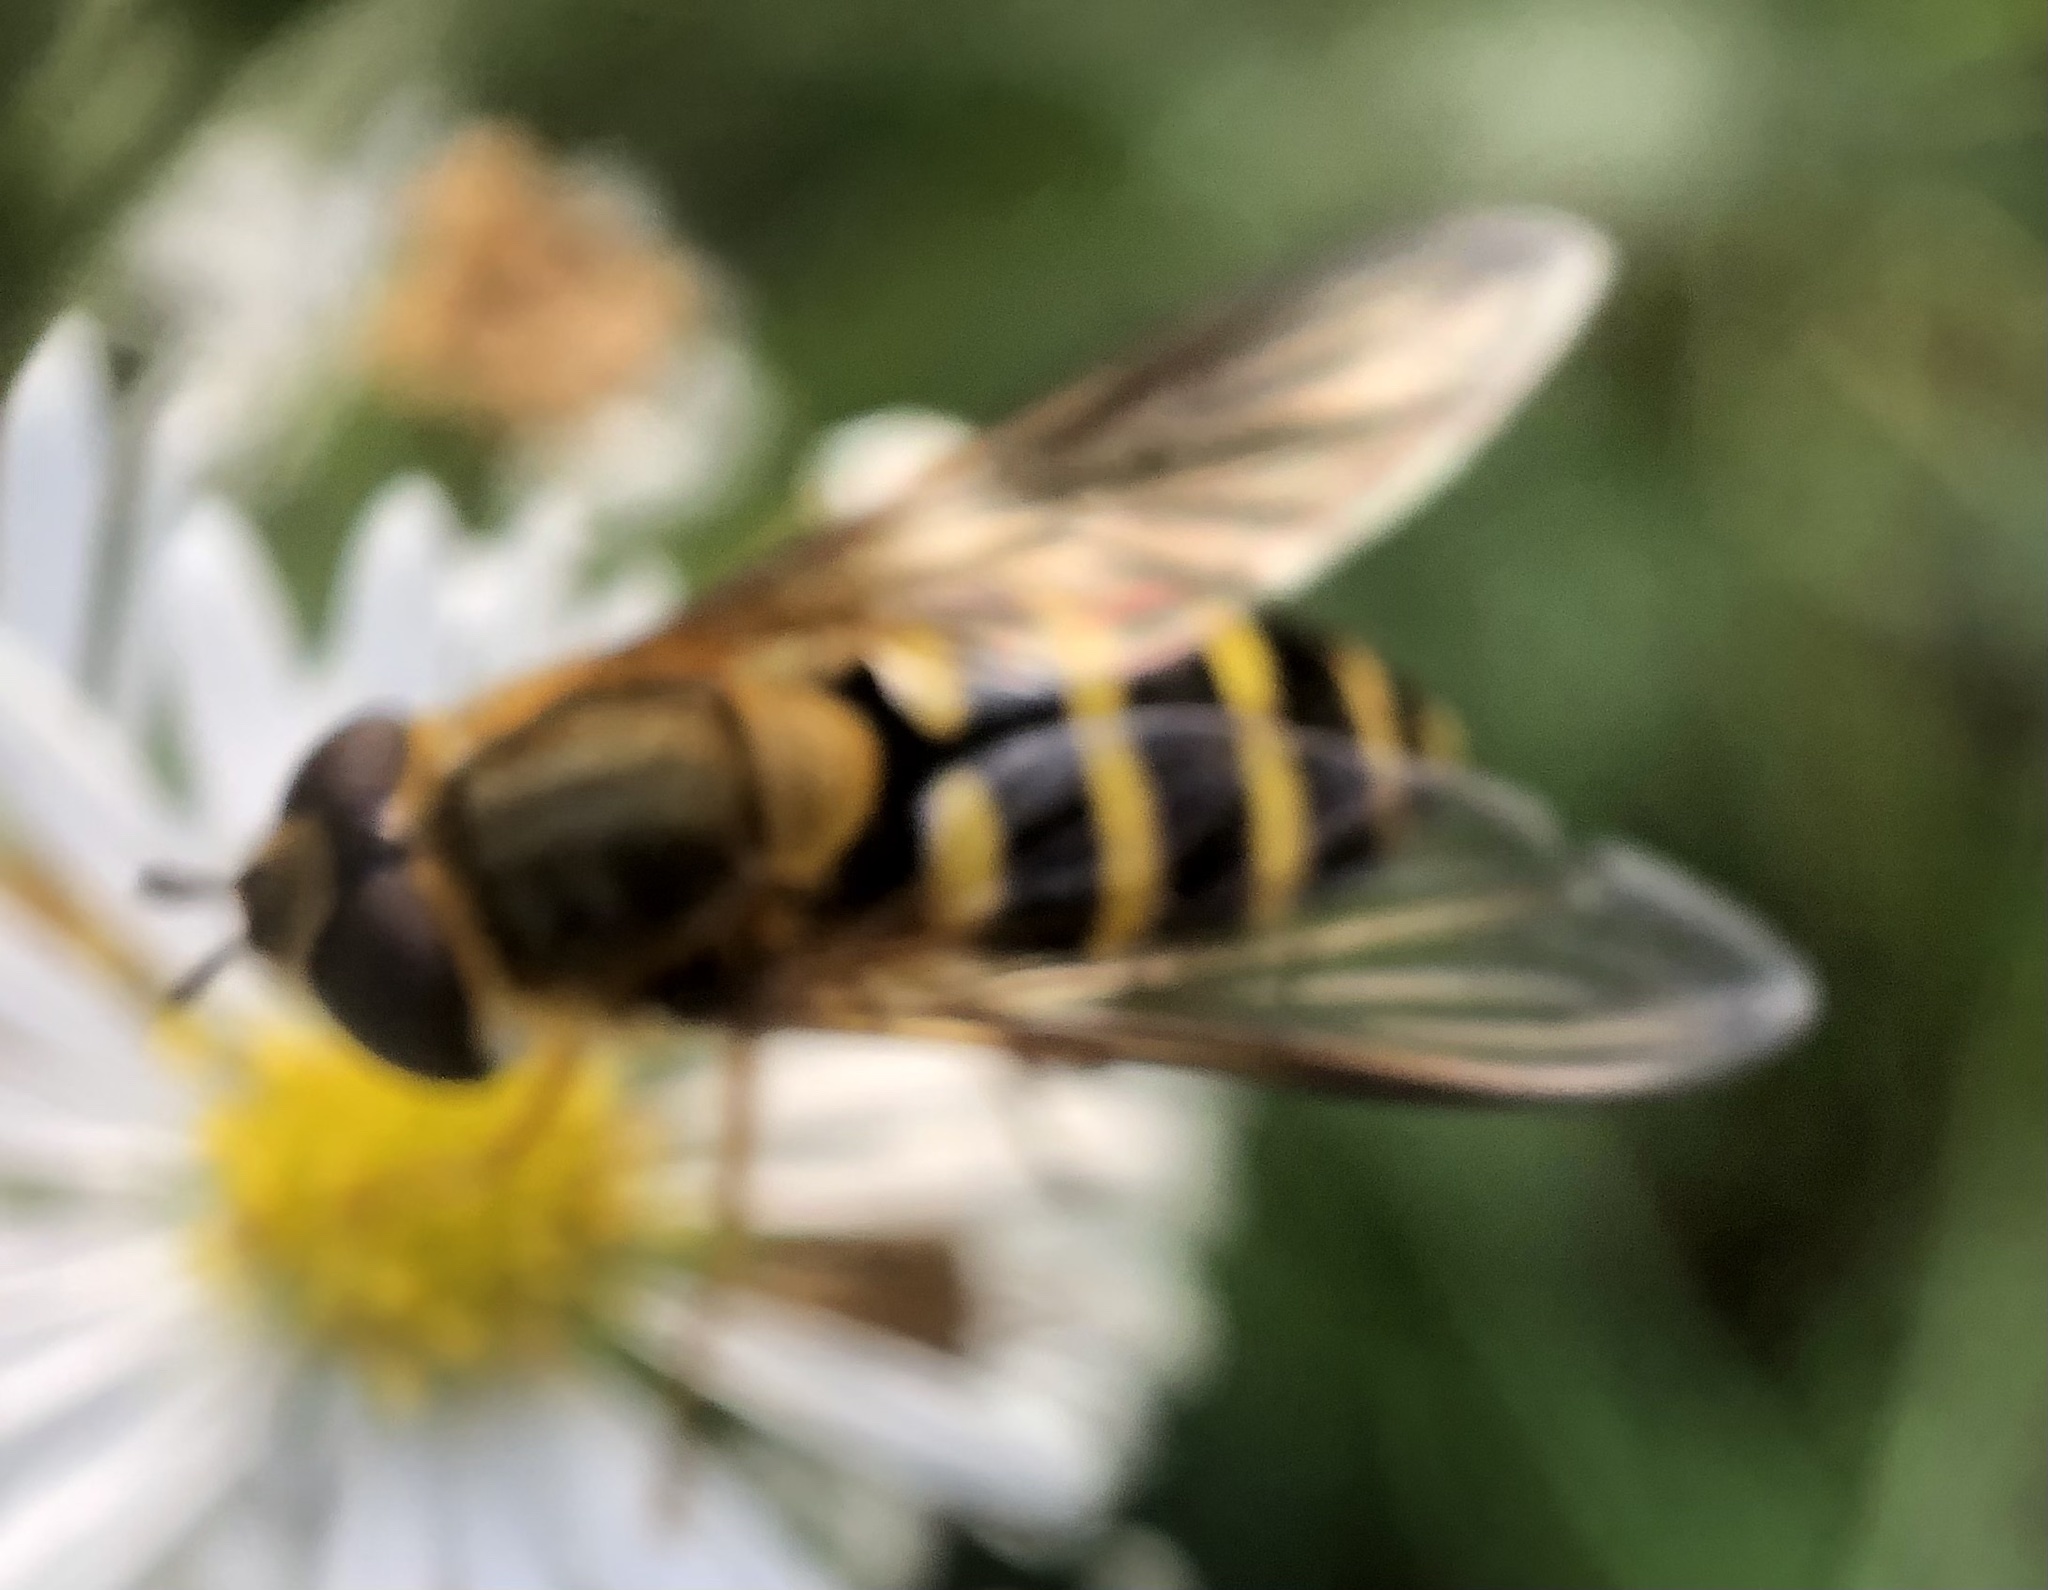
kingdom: Animalia
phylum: Arthropoda
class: Insecta
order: Diptera
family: Syrphidae
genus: Syrphus
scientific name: Syrphus torvus
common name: Hairy-eyed flower fly
